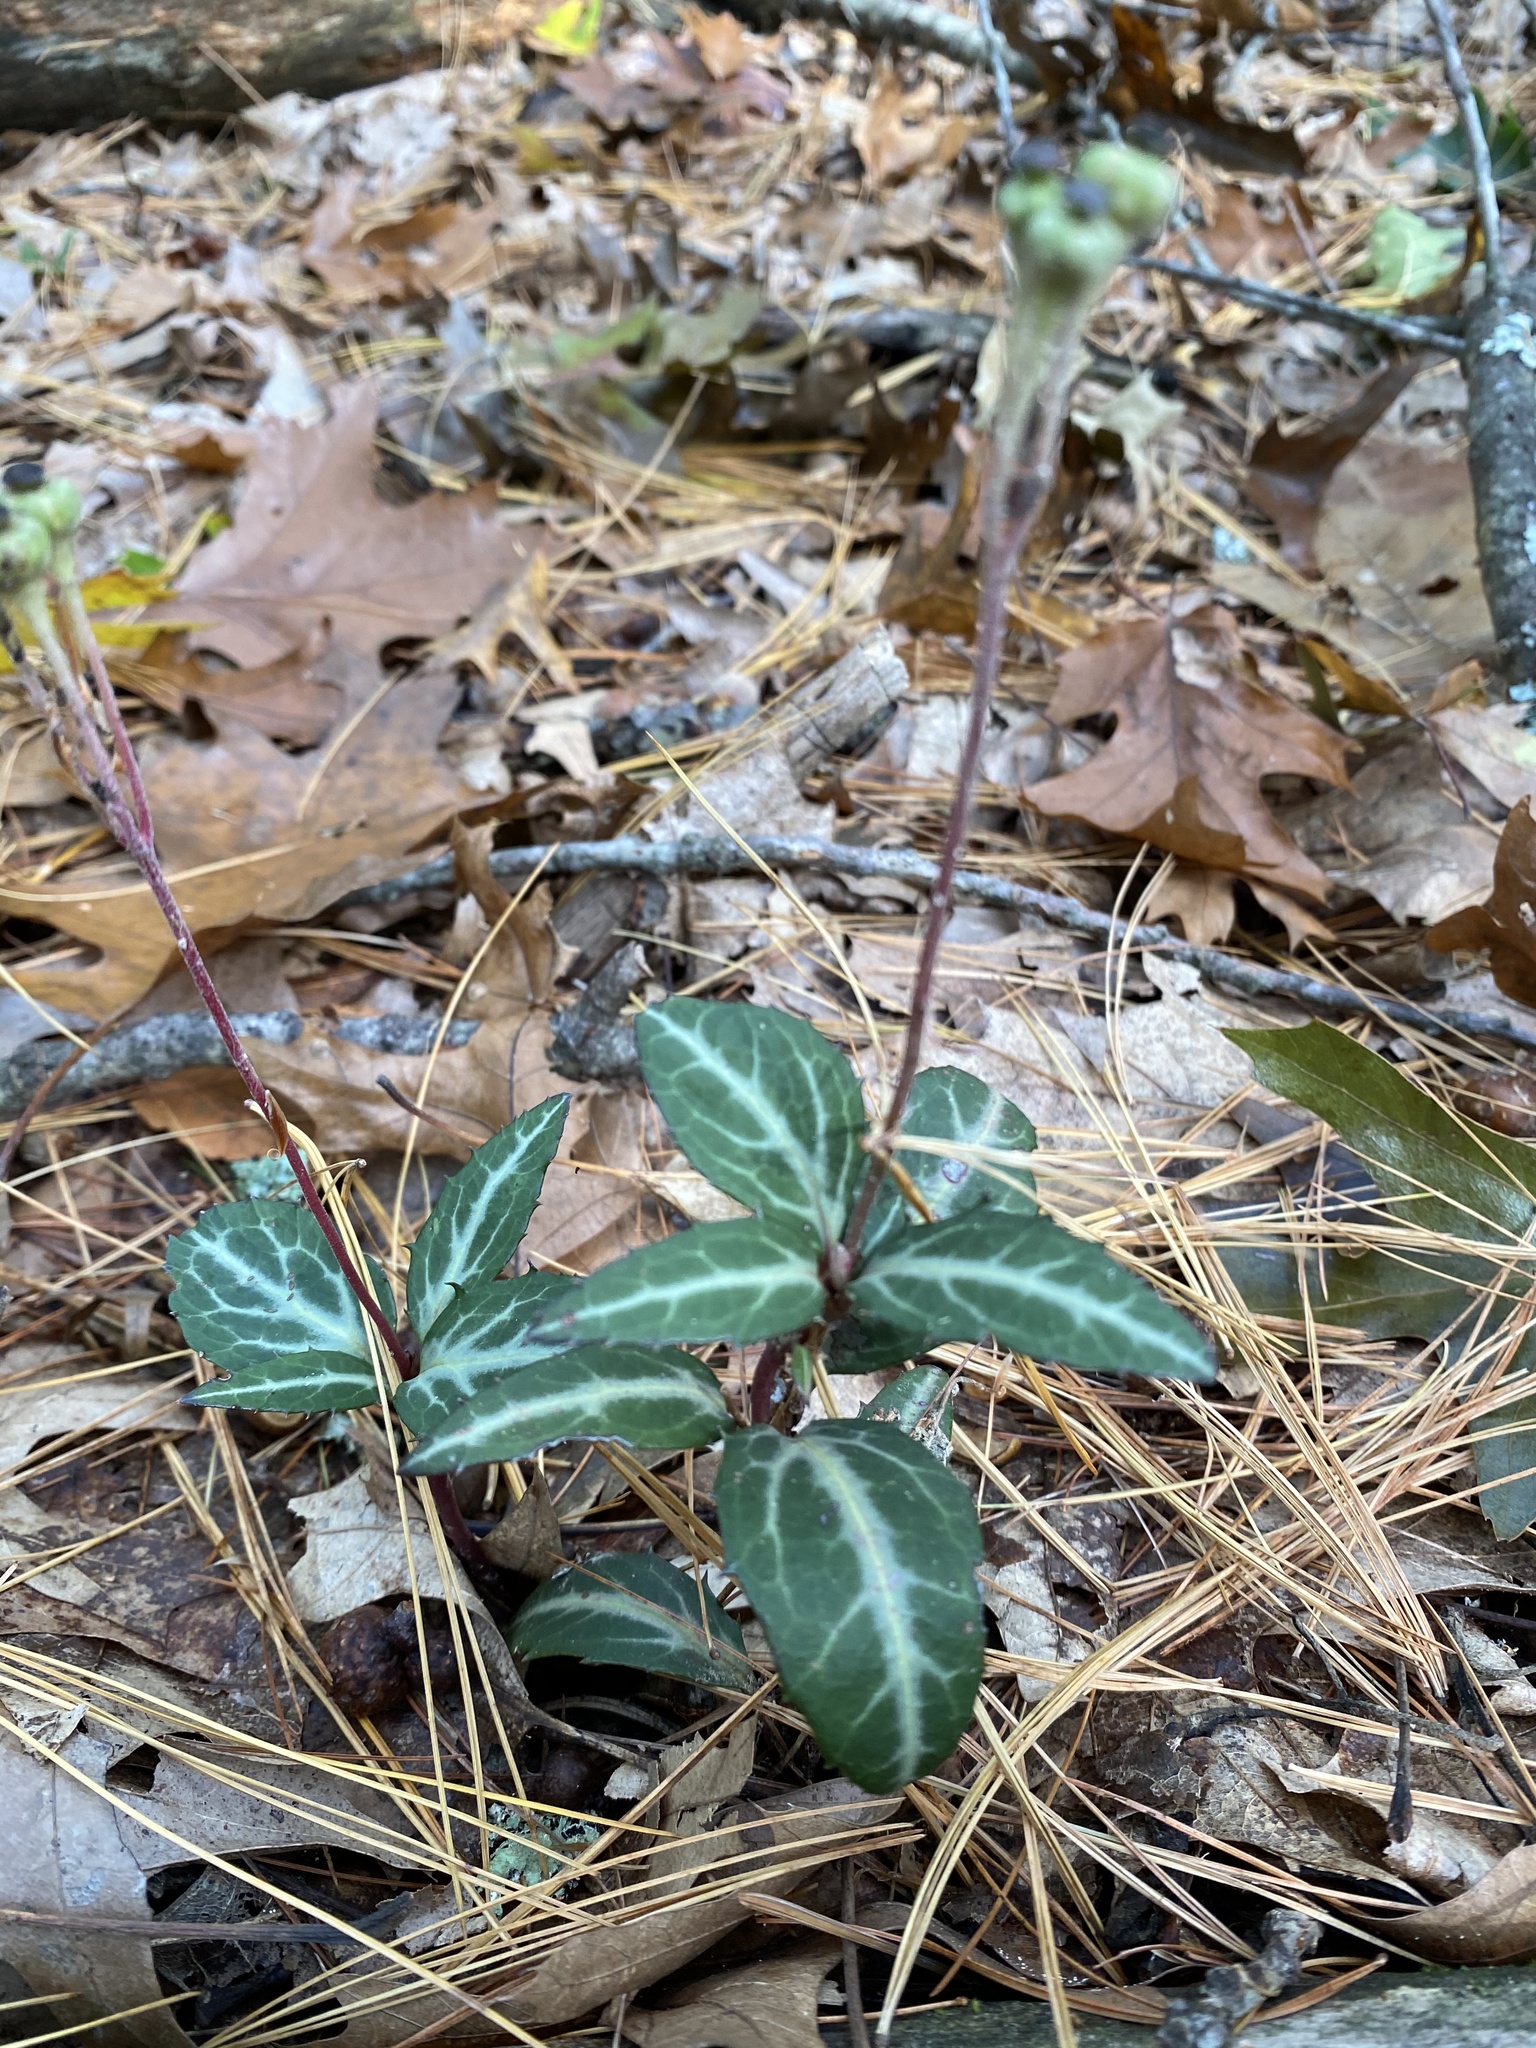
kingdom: Plantae
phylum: Tracheophyta
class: Magnoliopsida
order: Ericales
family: Ericaceae
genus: Chimaphila
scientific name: Chimaphila maculata
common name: Spotted pipsissewa
